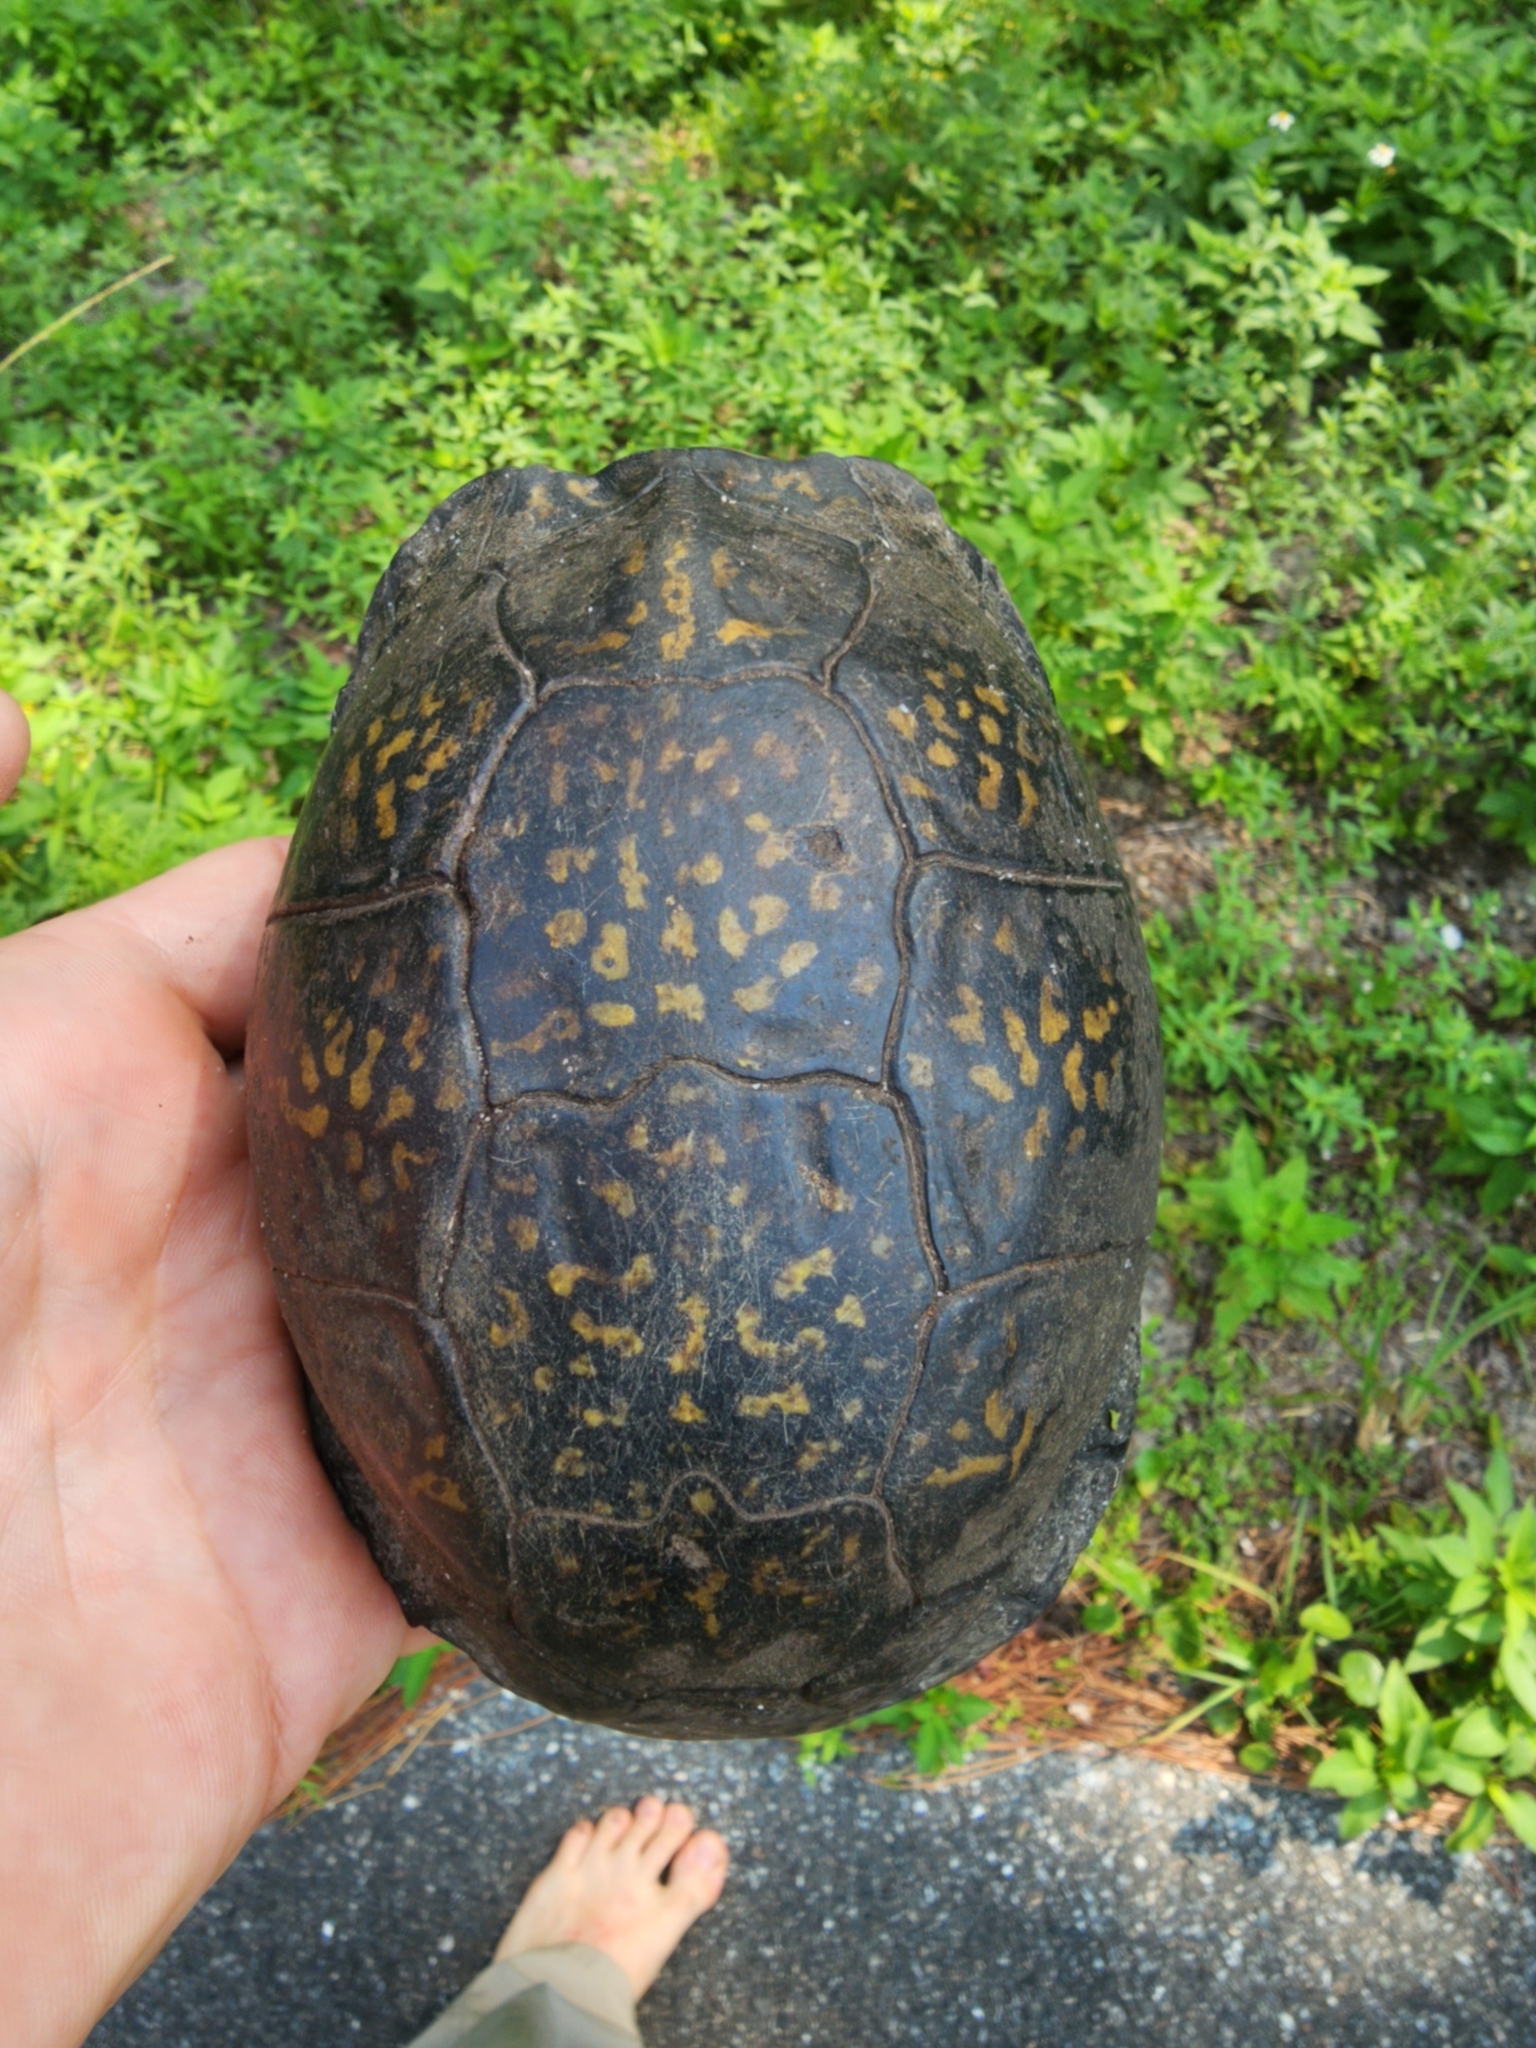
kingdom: Animalia
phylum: Chordata
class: Testudines
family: Emydidae
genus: Terrapene
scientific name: Terrapene carolina
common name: Common box turtle
